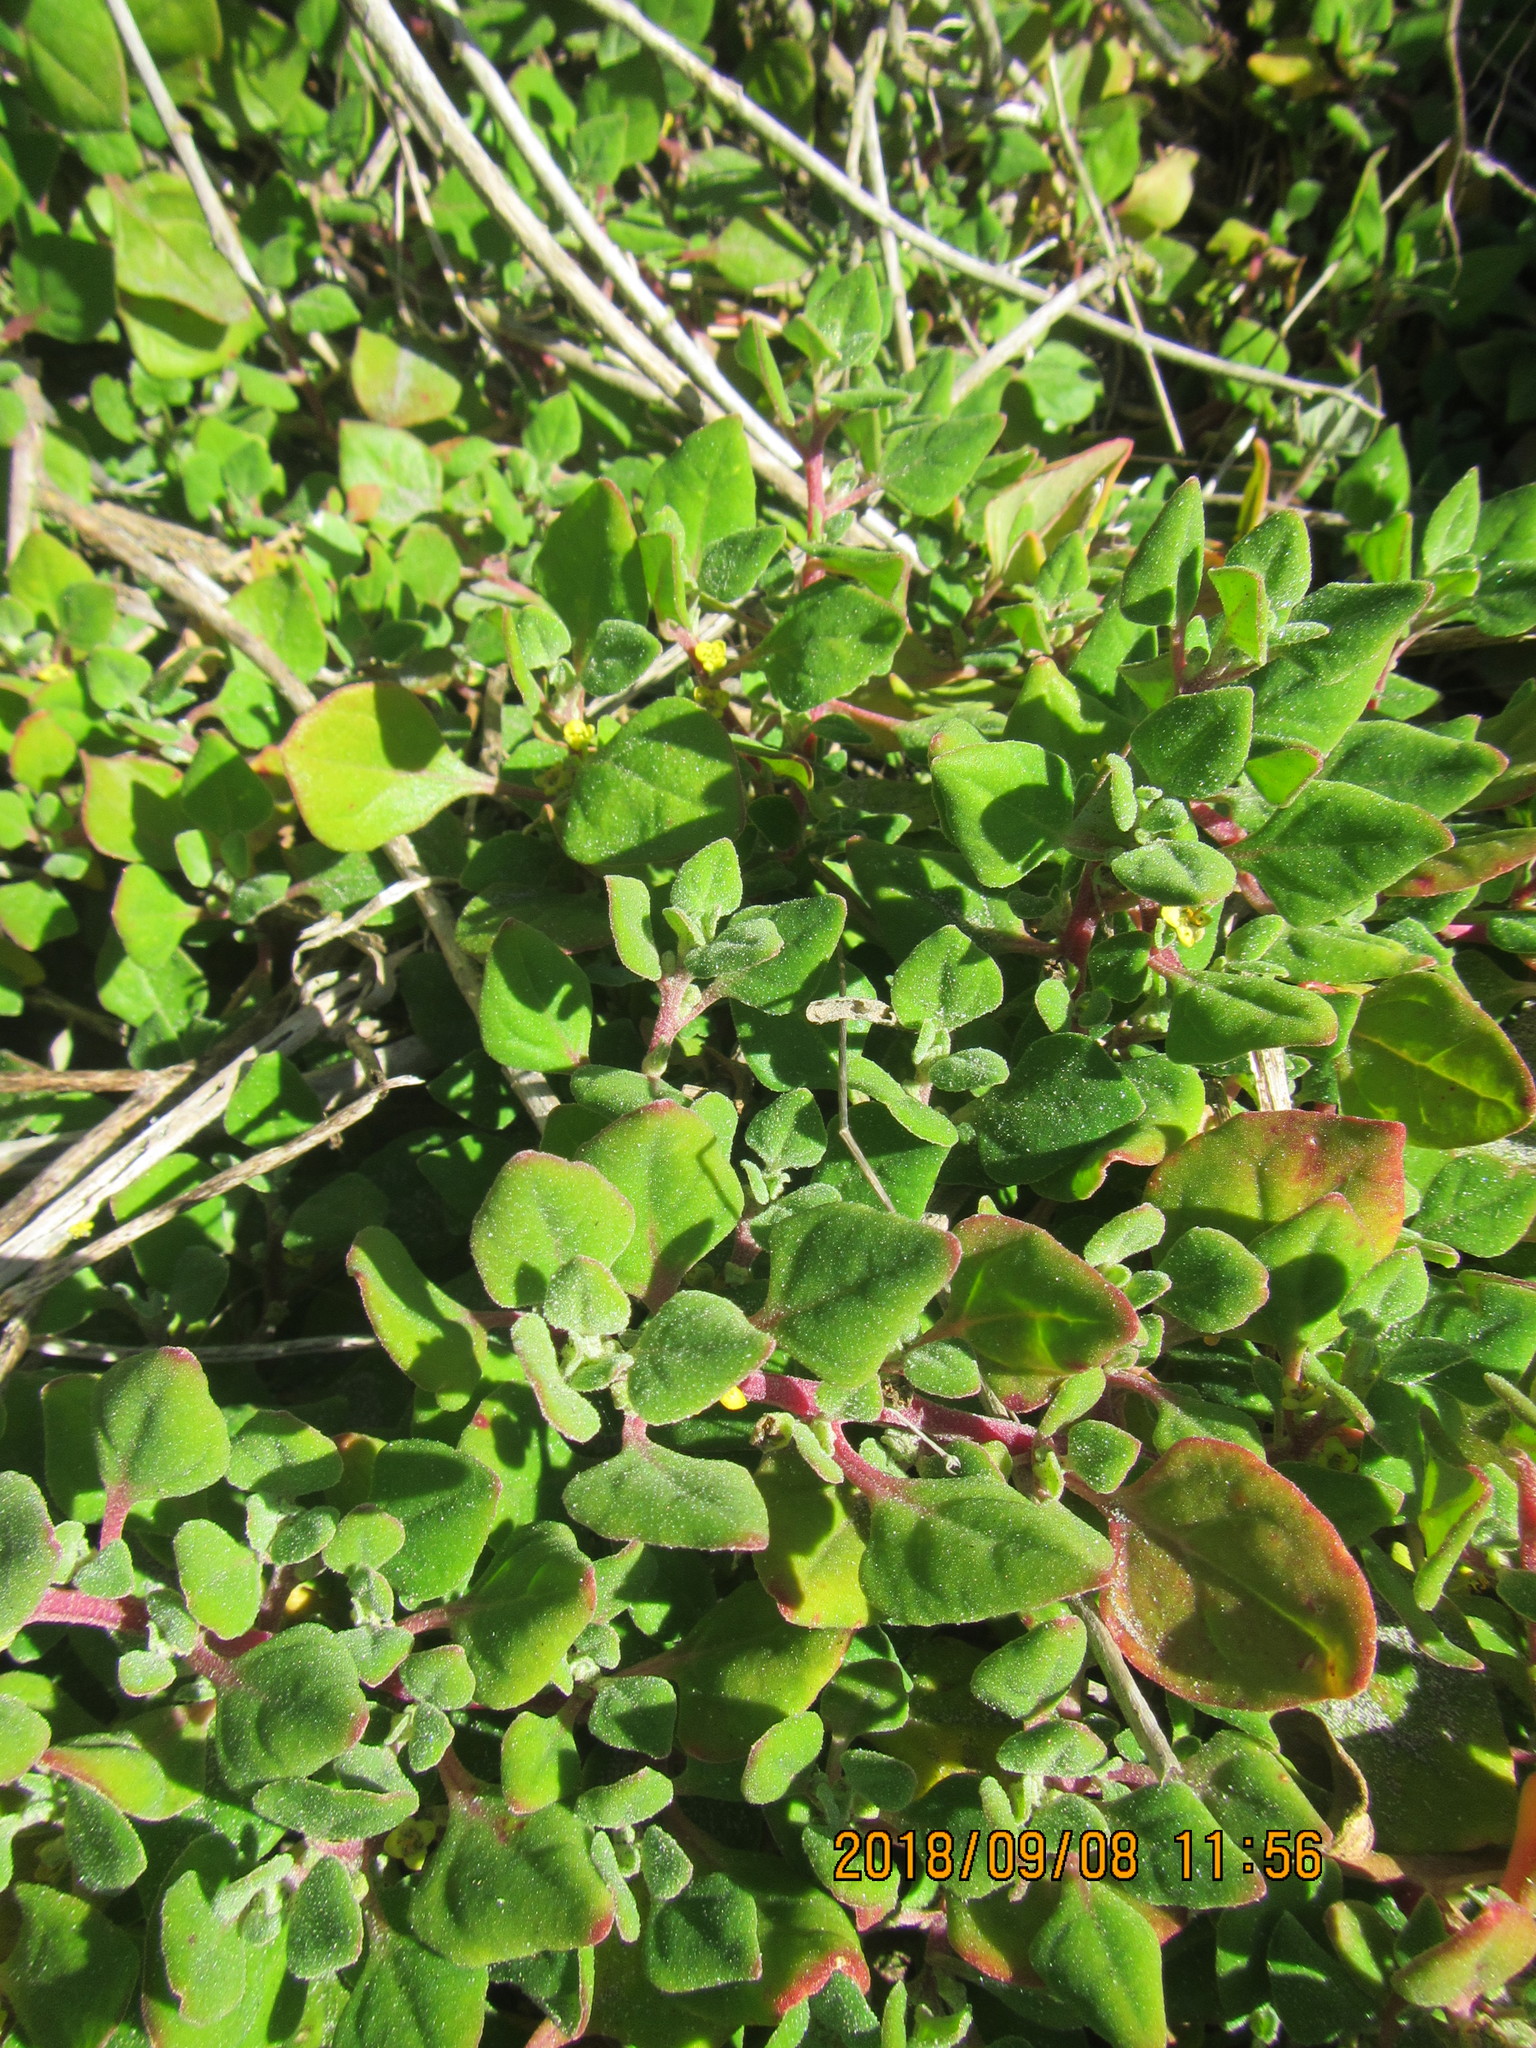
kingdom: Plantae
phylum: Tracheophyta
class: Magnoliopsida
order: Caryophyllales
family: Aizoaceae
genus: Tetragonia
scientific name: Tetragonia implexicoma
